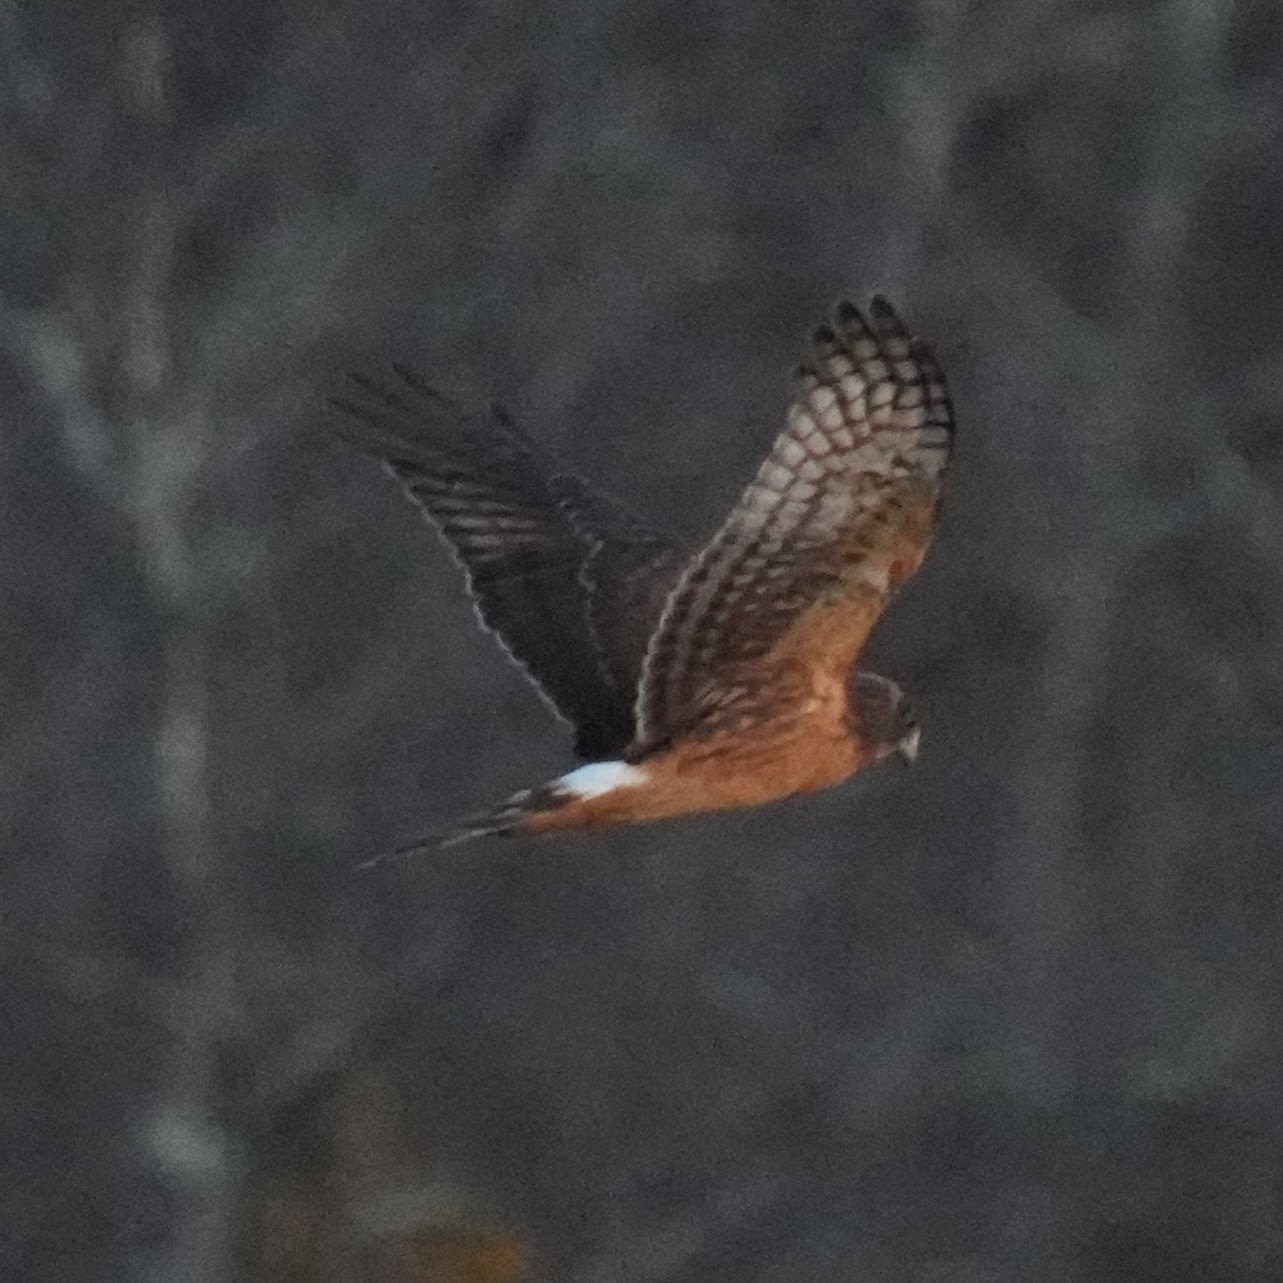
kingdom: Animalia
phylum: Chordata
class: Aves
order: Accipitriformes
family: Accipitridae
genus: Circus
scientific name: Circus cyaneus
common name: Hen harrier
